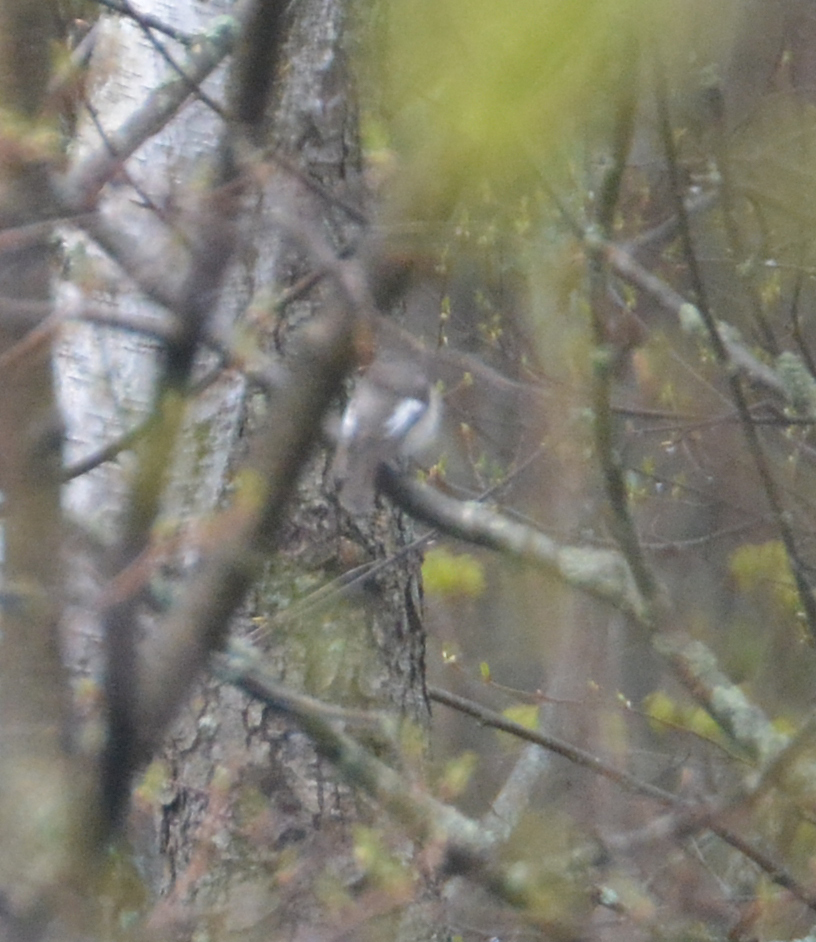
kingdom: Animalia
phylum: Chordata
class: Aves
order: Passeriformes
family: Muscicapidae
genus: Ficedula
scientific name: Ficedula hypoleuca
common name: European pied flycatcher
